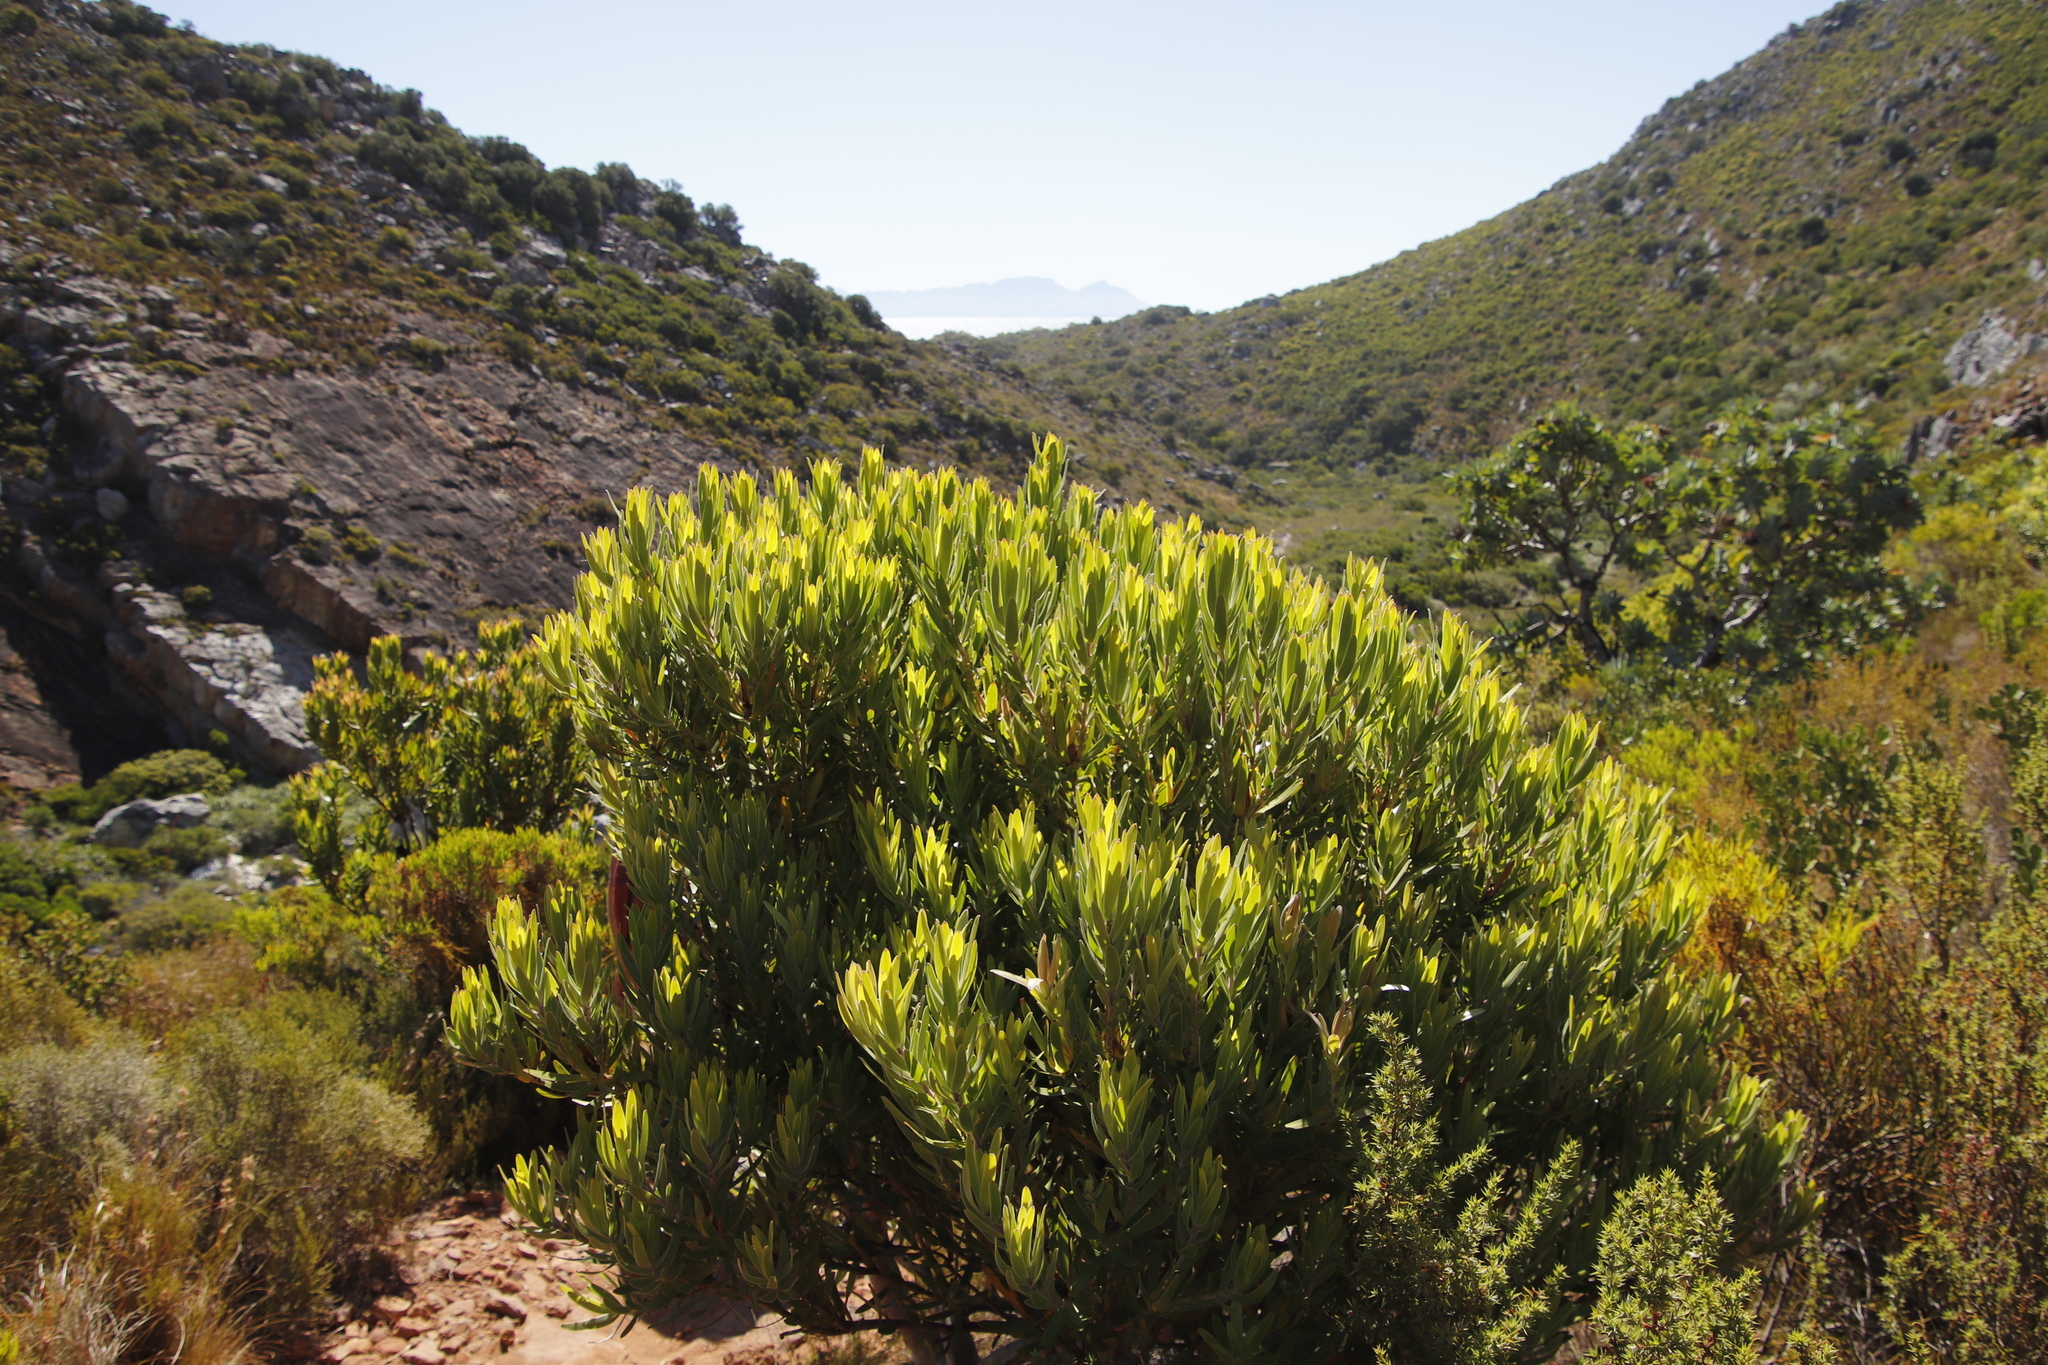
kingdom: Plantae
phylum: Tracheophyta
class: Magnoliopsida
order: Proteales
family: Proteaceae
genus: Leucadendron
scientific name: Leucadendron laureolum
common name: Golden sunshinebush
